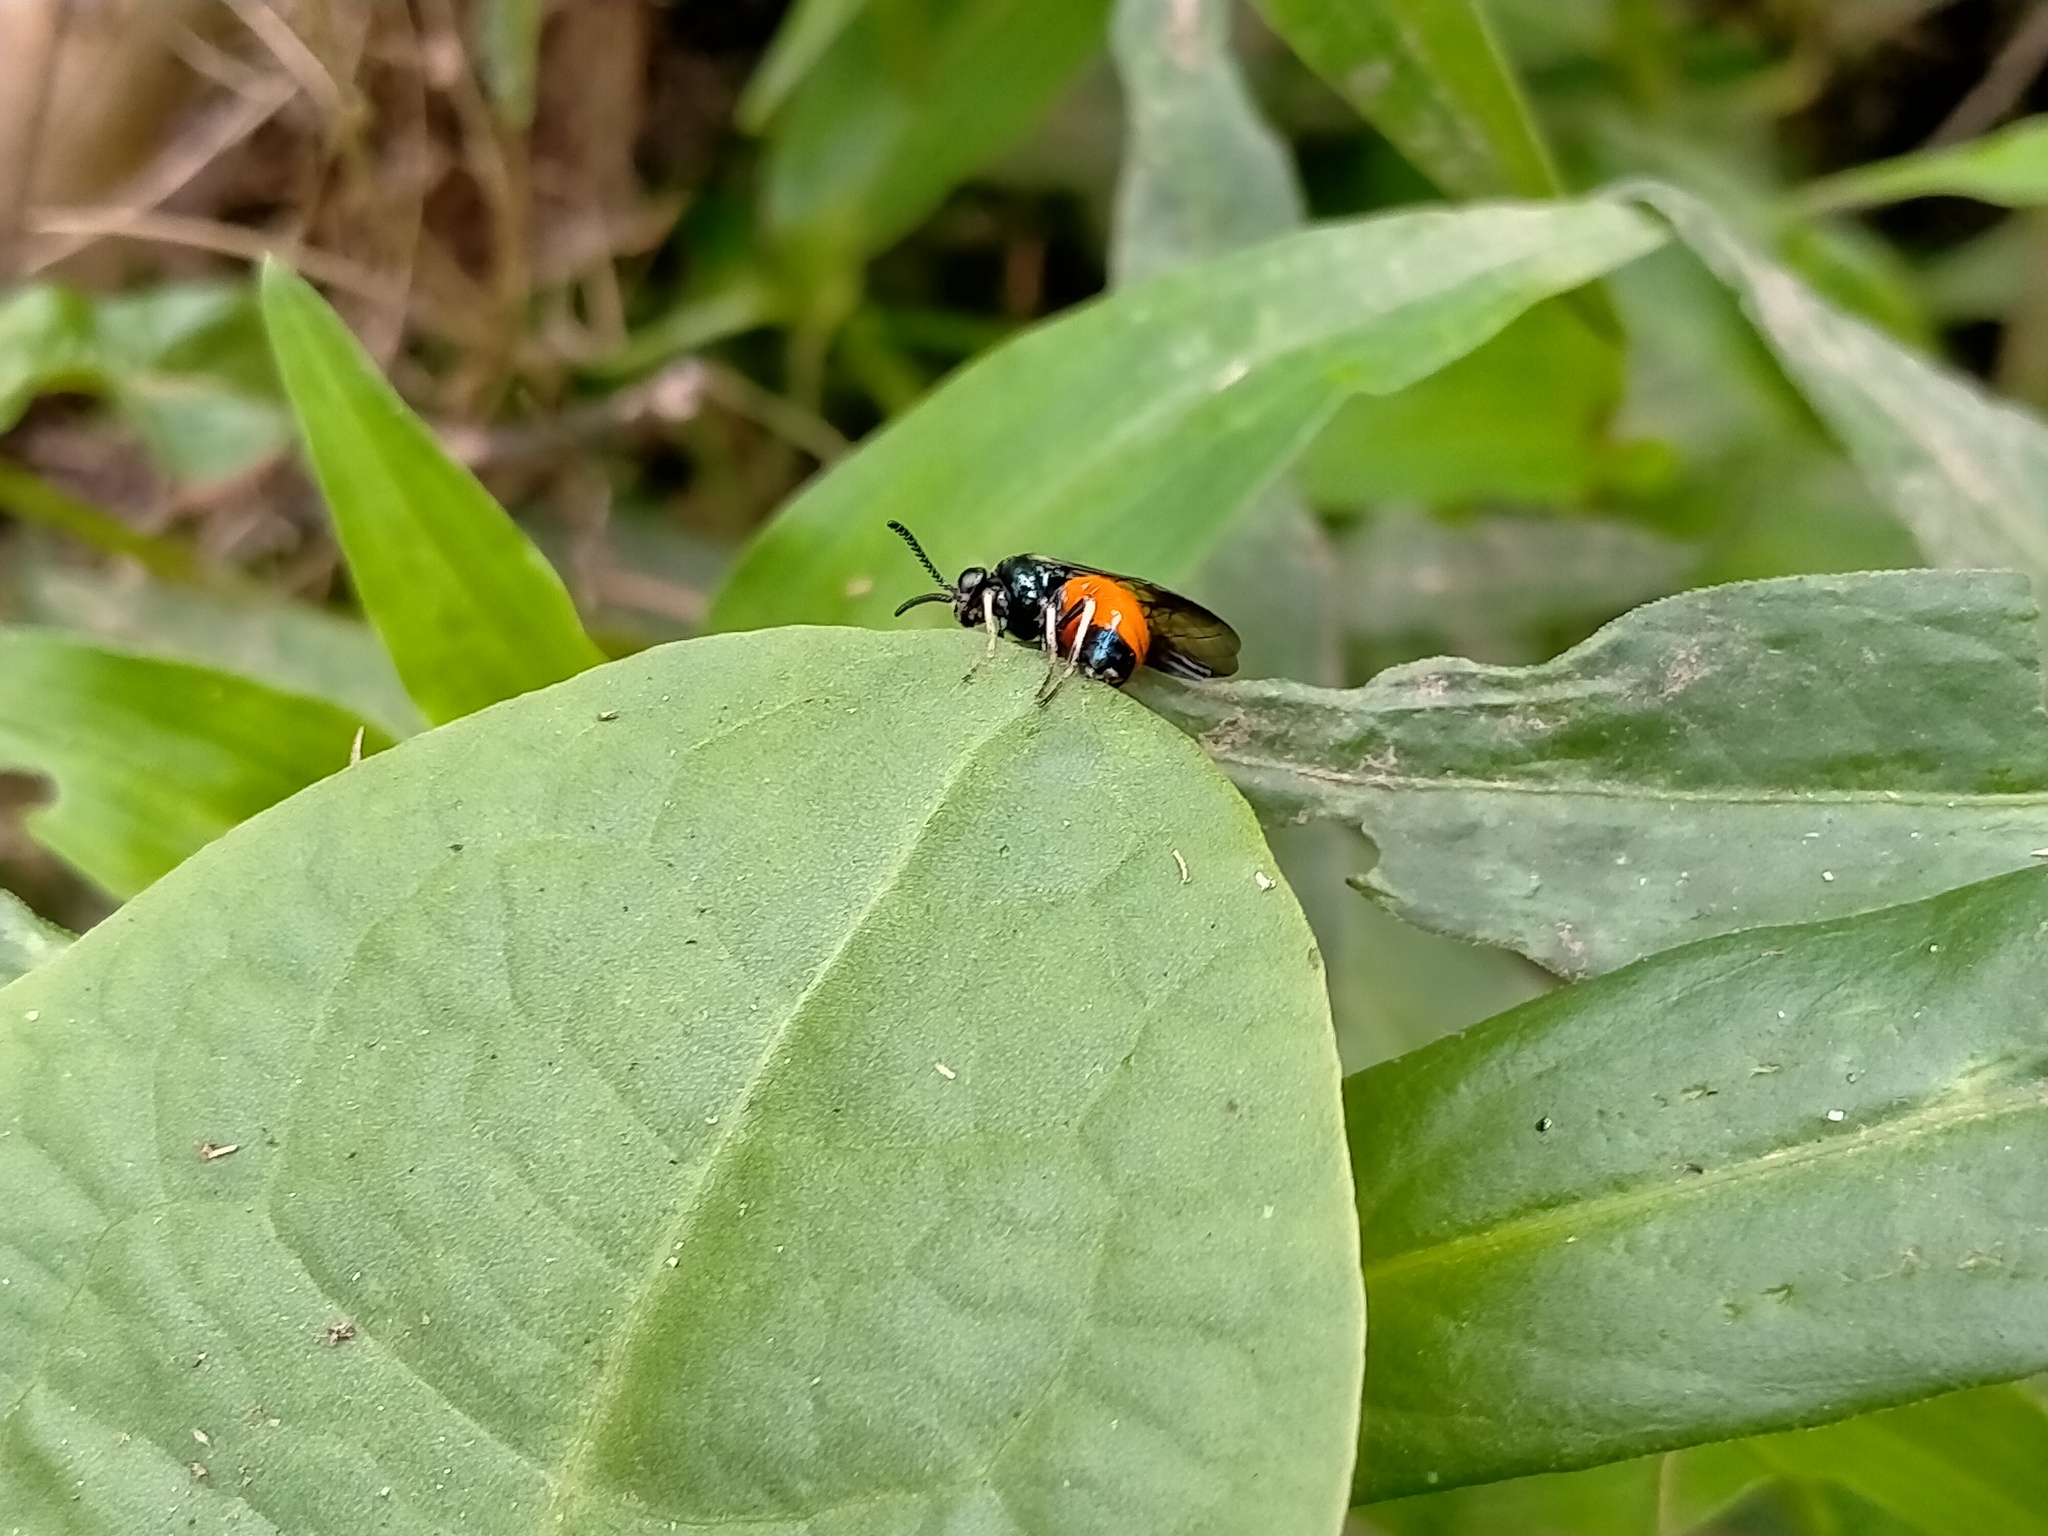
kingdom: Animalia
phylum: Arthropoda
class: Insecta
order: Hymenoptera
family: Pergidae
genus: Lophyrotoma
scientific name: Lophyrotoma analis
